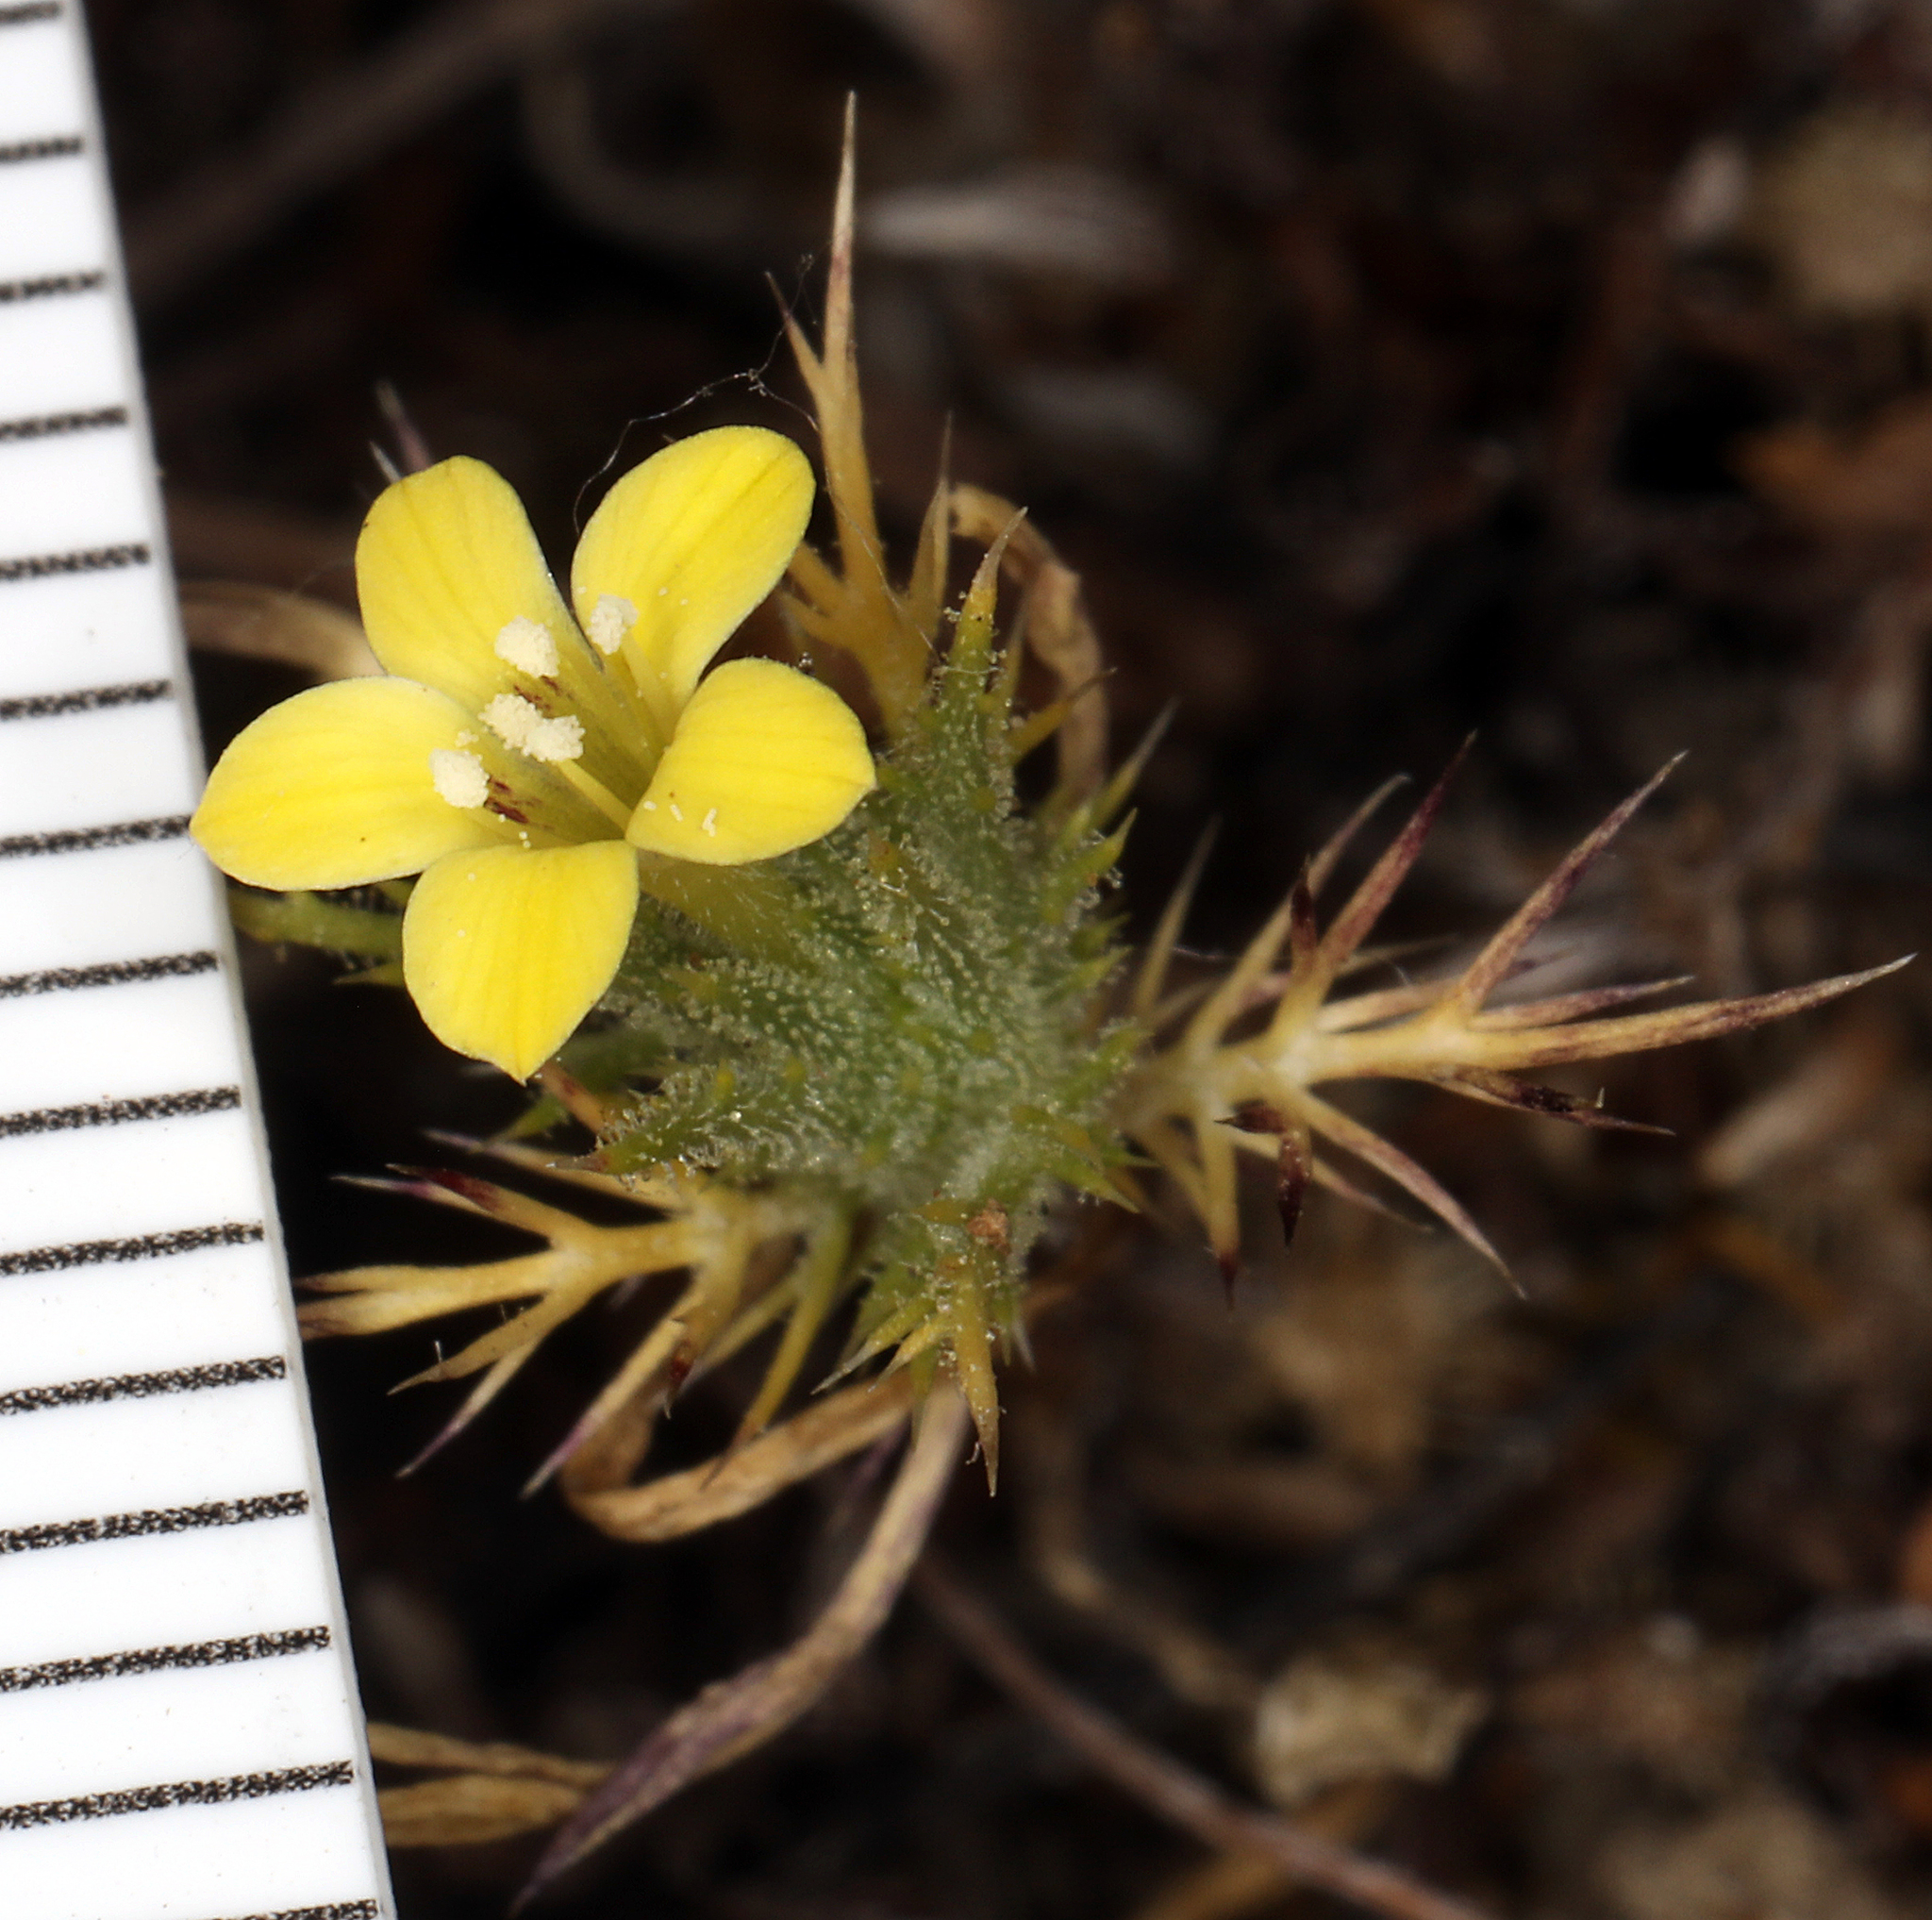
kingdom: Plantae
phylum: Tracheophyta
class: Magnoliopsida
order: Ericales
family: Polemoniaceae
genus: Navarretia
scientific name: Navarretia nigelliformis
